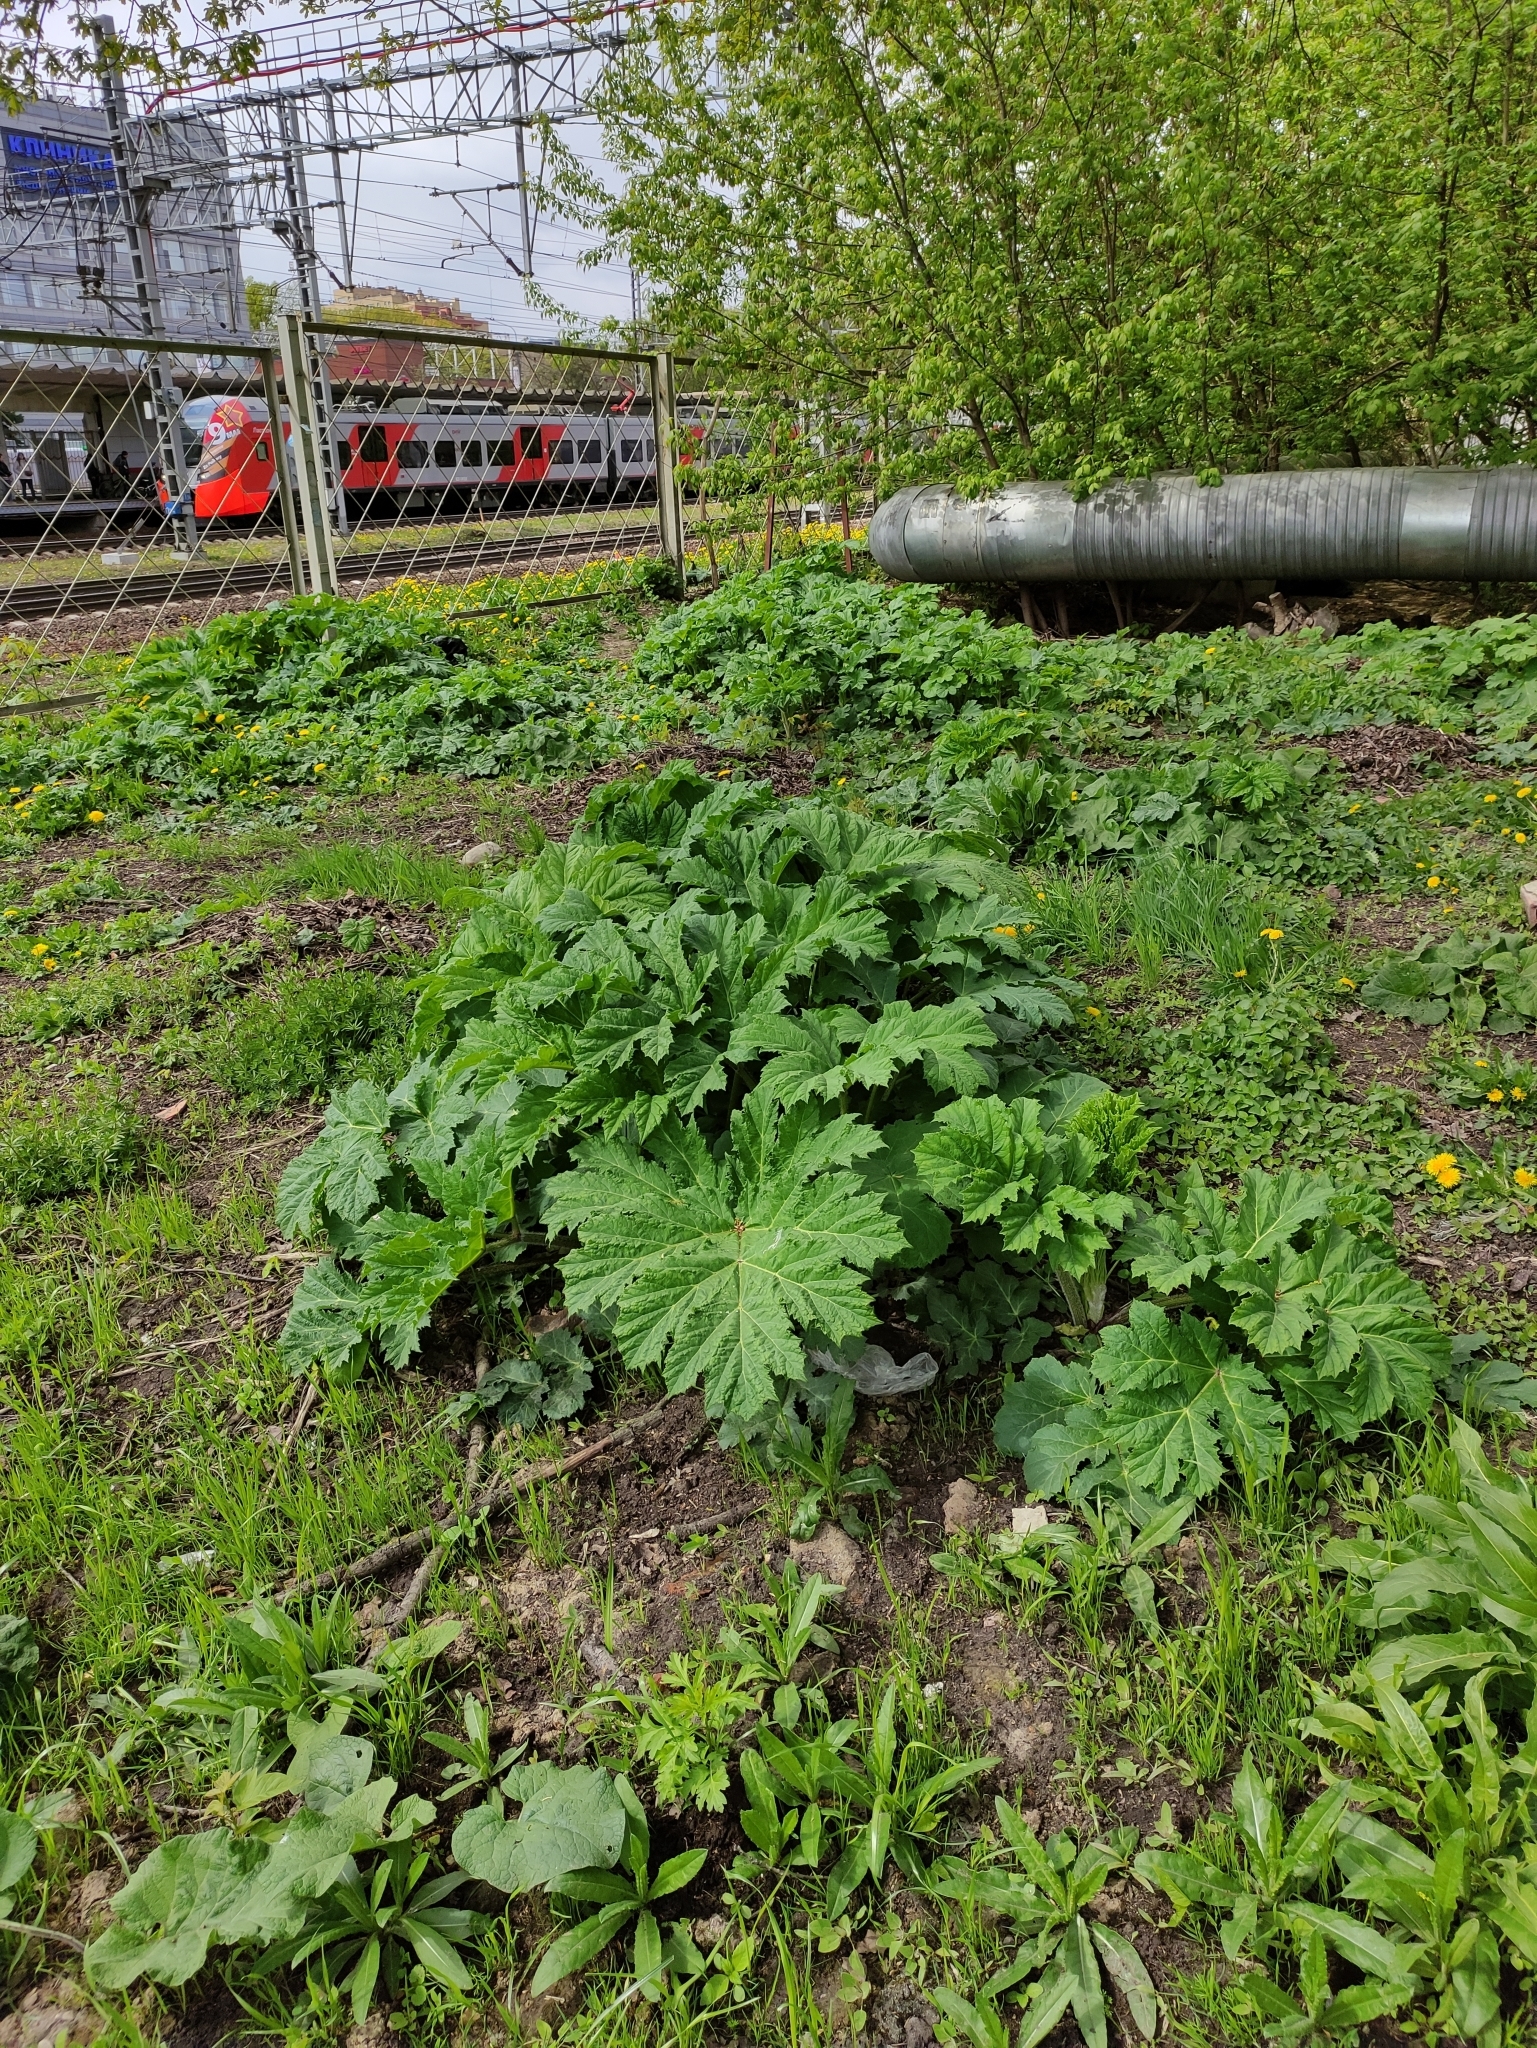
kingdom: Plantae
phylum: Tracheophyta
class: Magnoliopsida
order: Apiales
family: Apiaceae
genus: Heracleum
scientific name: Heracleum sosnowskyi
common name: Sosnowsky's hogweed
